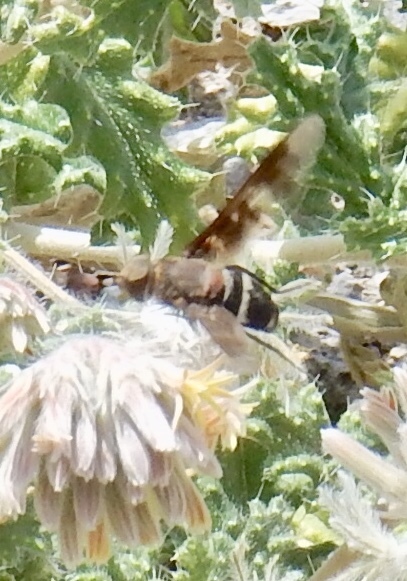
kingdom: Animalia
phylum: Arthropoda
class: Insecta
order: Diptera
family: Bombyliidae
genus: Exoprosopa
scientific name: Exoprosopa ingens
